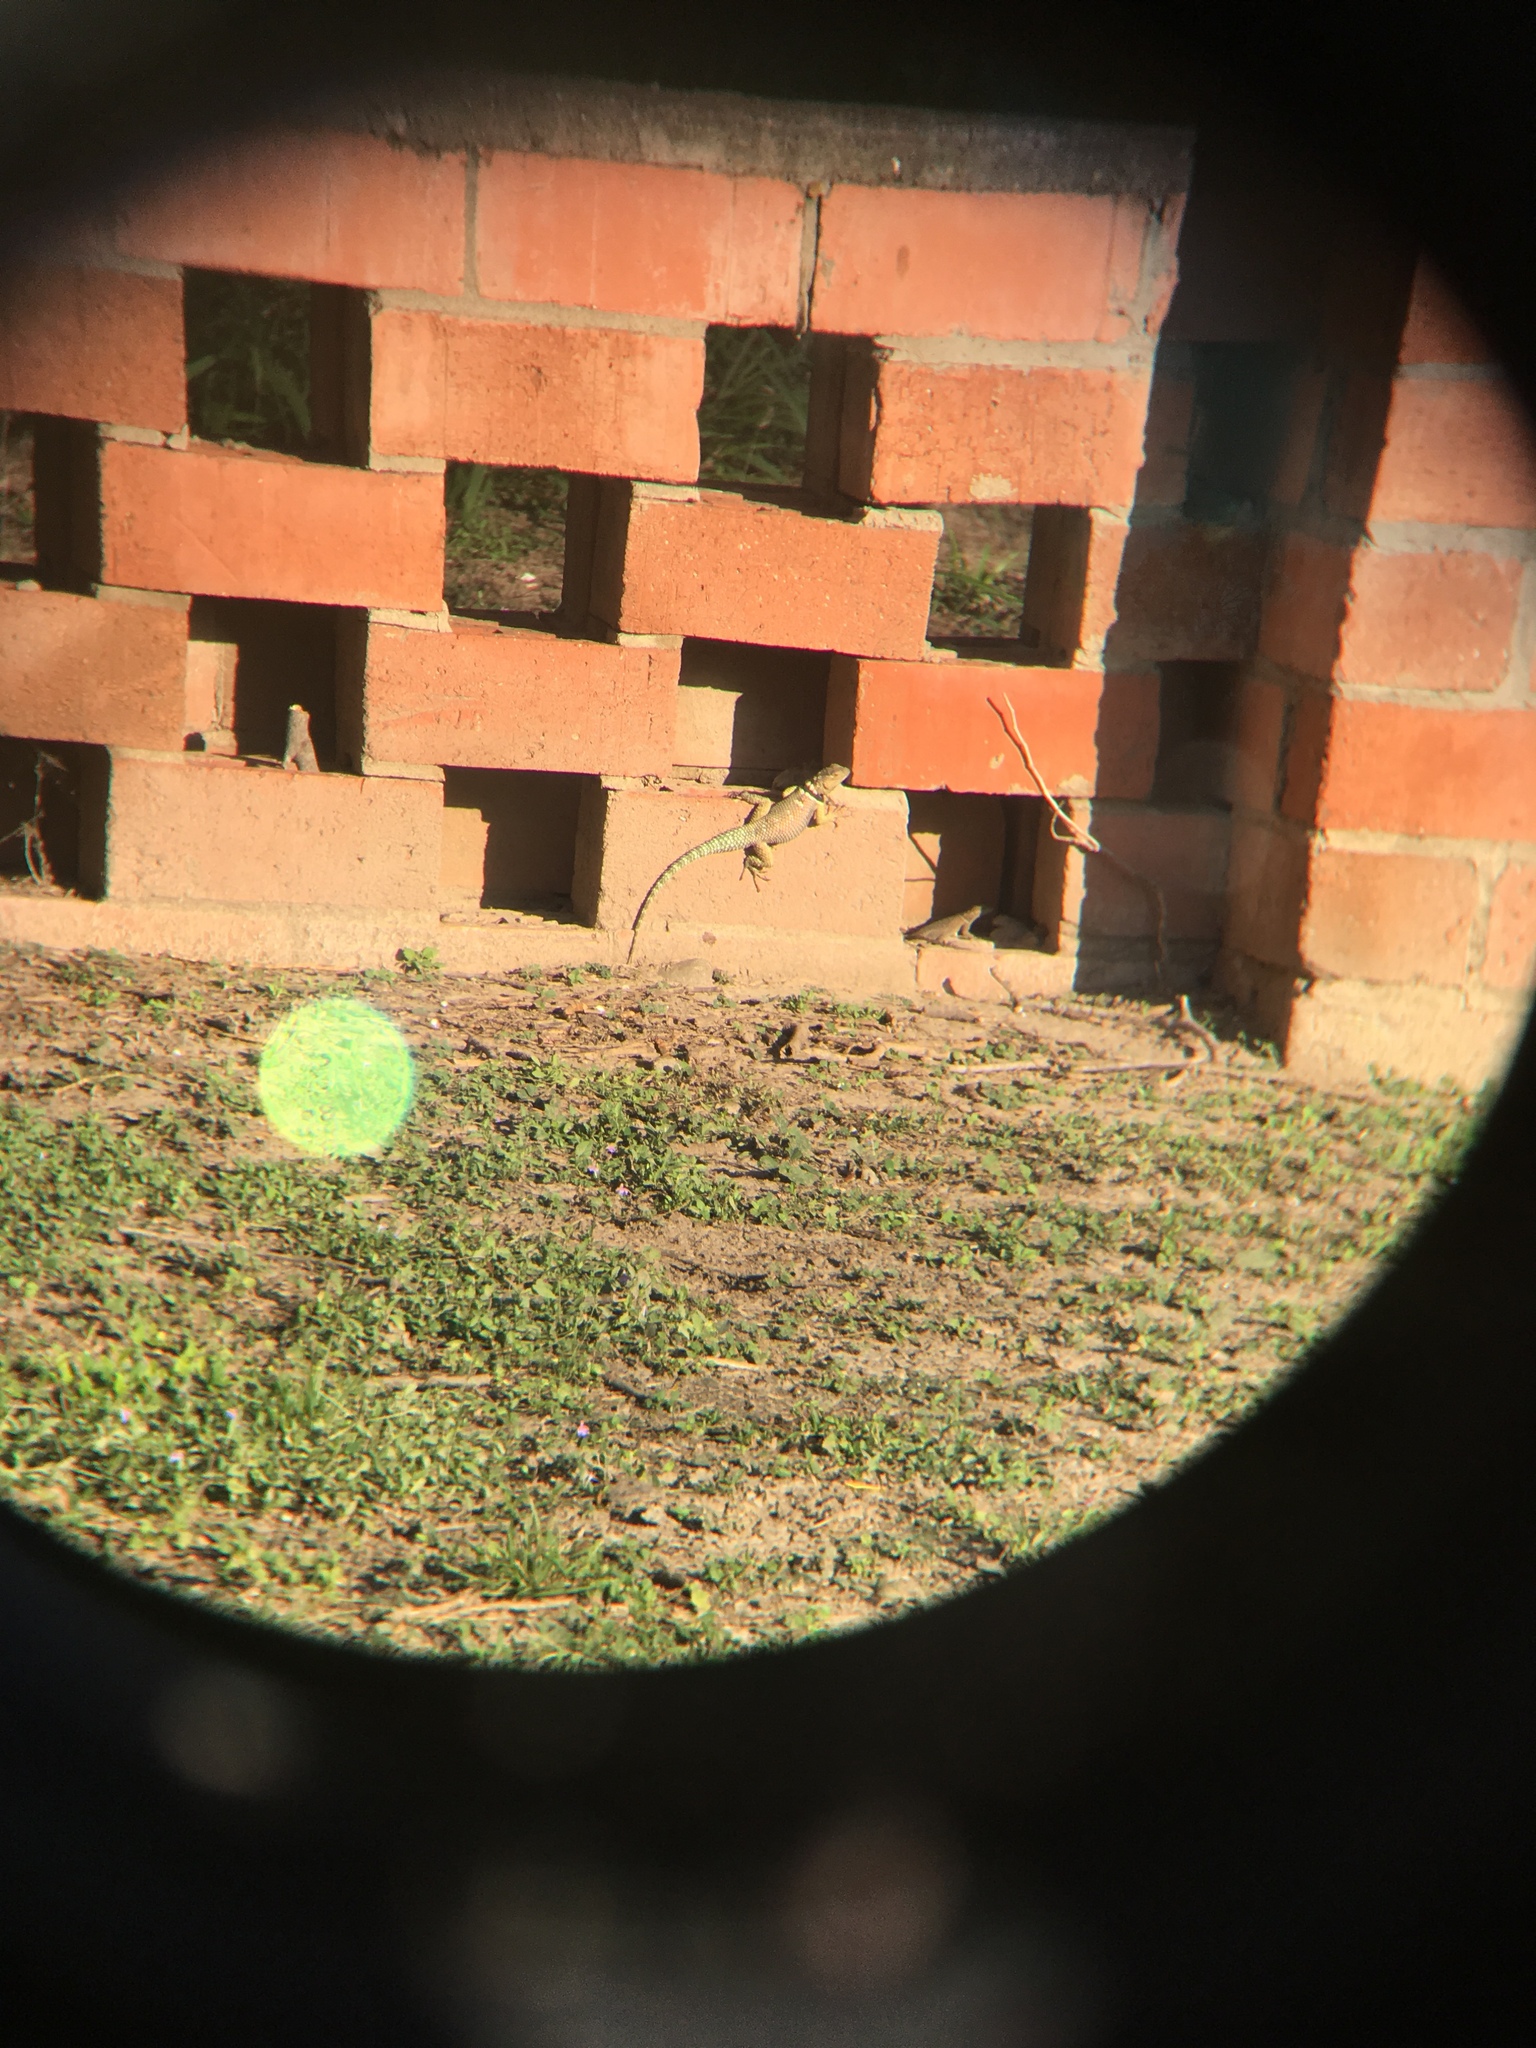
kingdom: Animalia
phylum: Chordata
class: Squamata
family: Phrynosomatidae
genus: Sceloporus
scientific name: Sceloporus cyanogenys
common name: Blue spiny lizard
